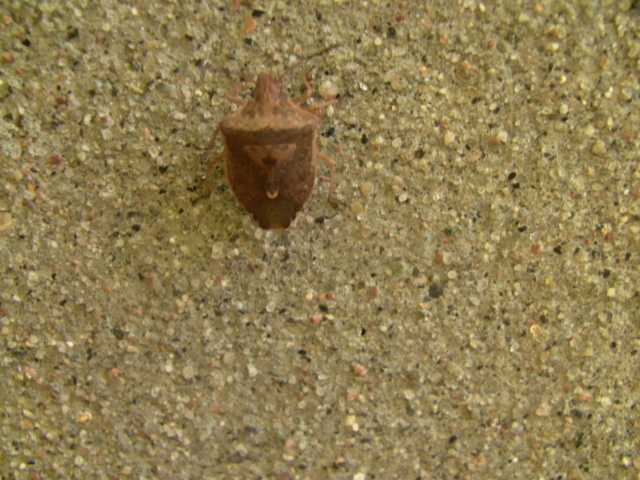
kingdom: Animalia
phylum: Arthropoda
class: Insecta
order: Hemiptera
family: Pentatomidae
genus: Euschistus
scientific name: Euschistus servus
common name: Brown stink bug
